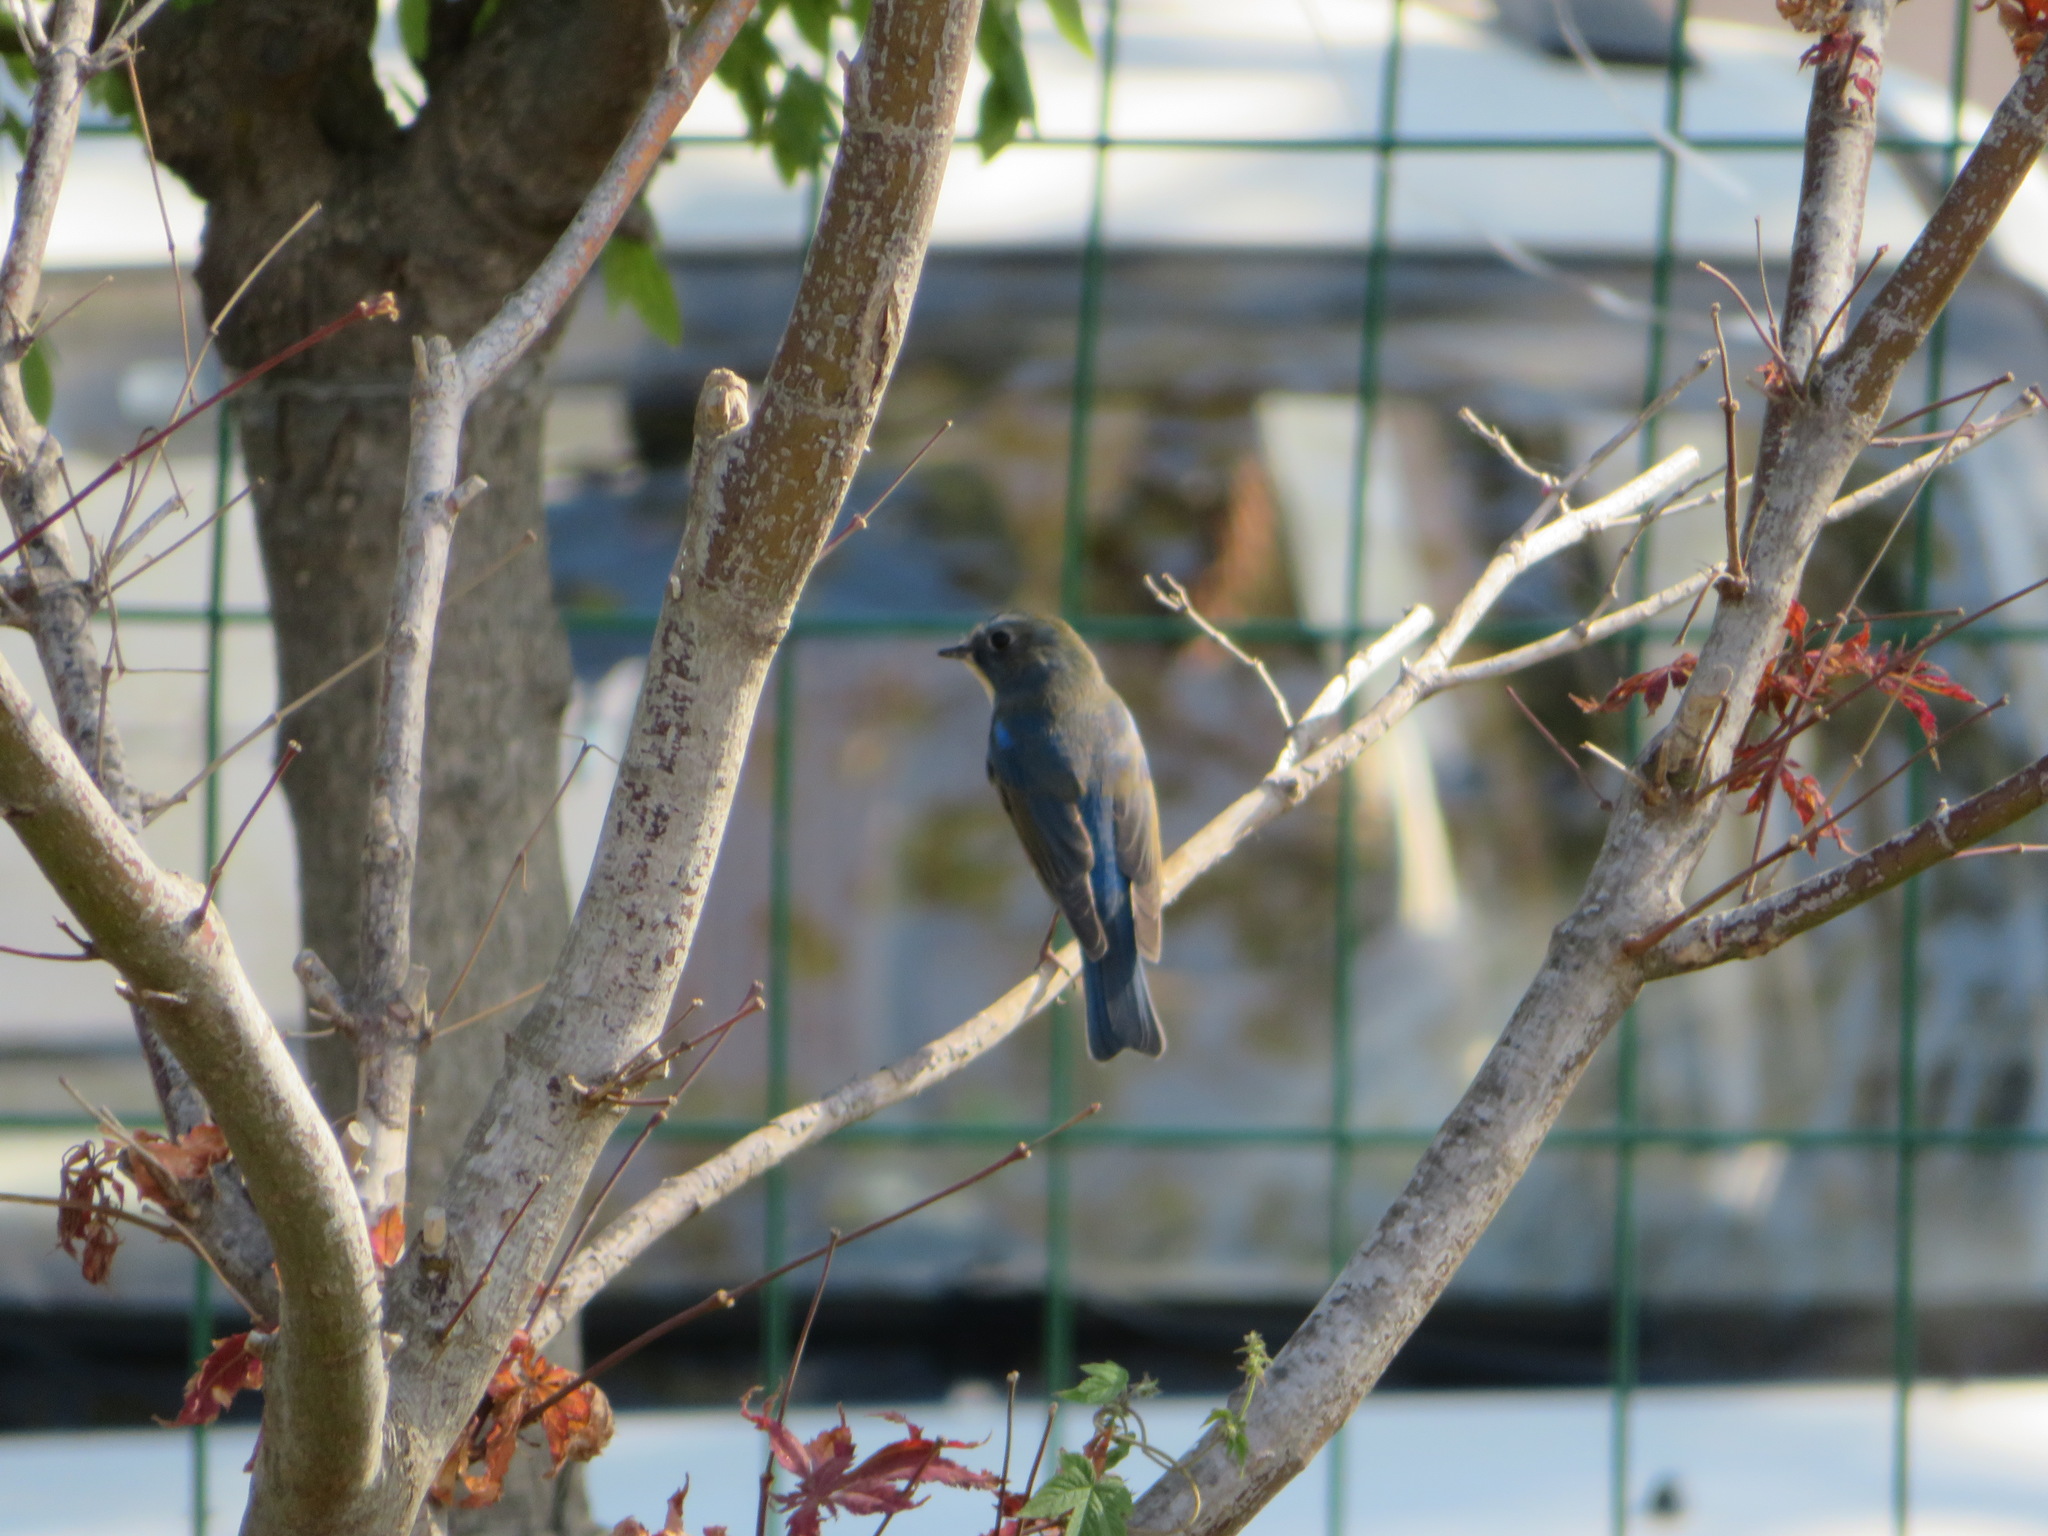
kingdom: Animalia
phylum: Chordata
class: Aves
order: Passeriformes
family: Muscicapidae
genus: Tarsiger
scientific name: Tarsiger cyanurus
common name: Red-flanked bluetail
